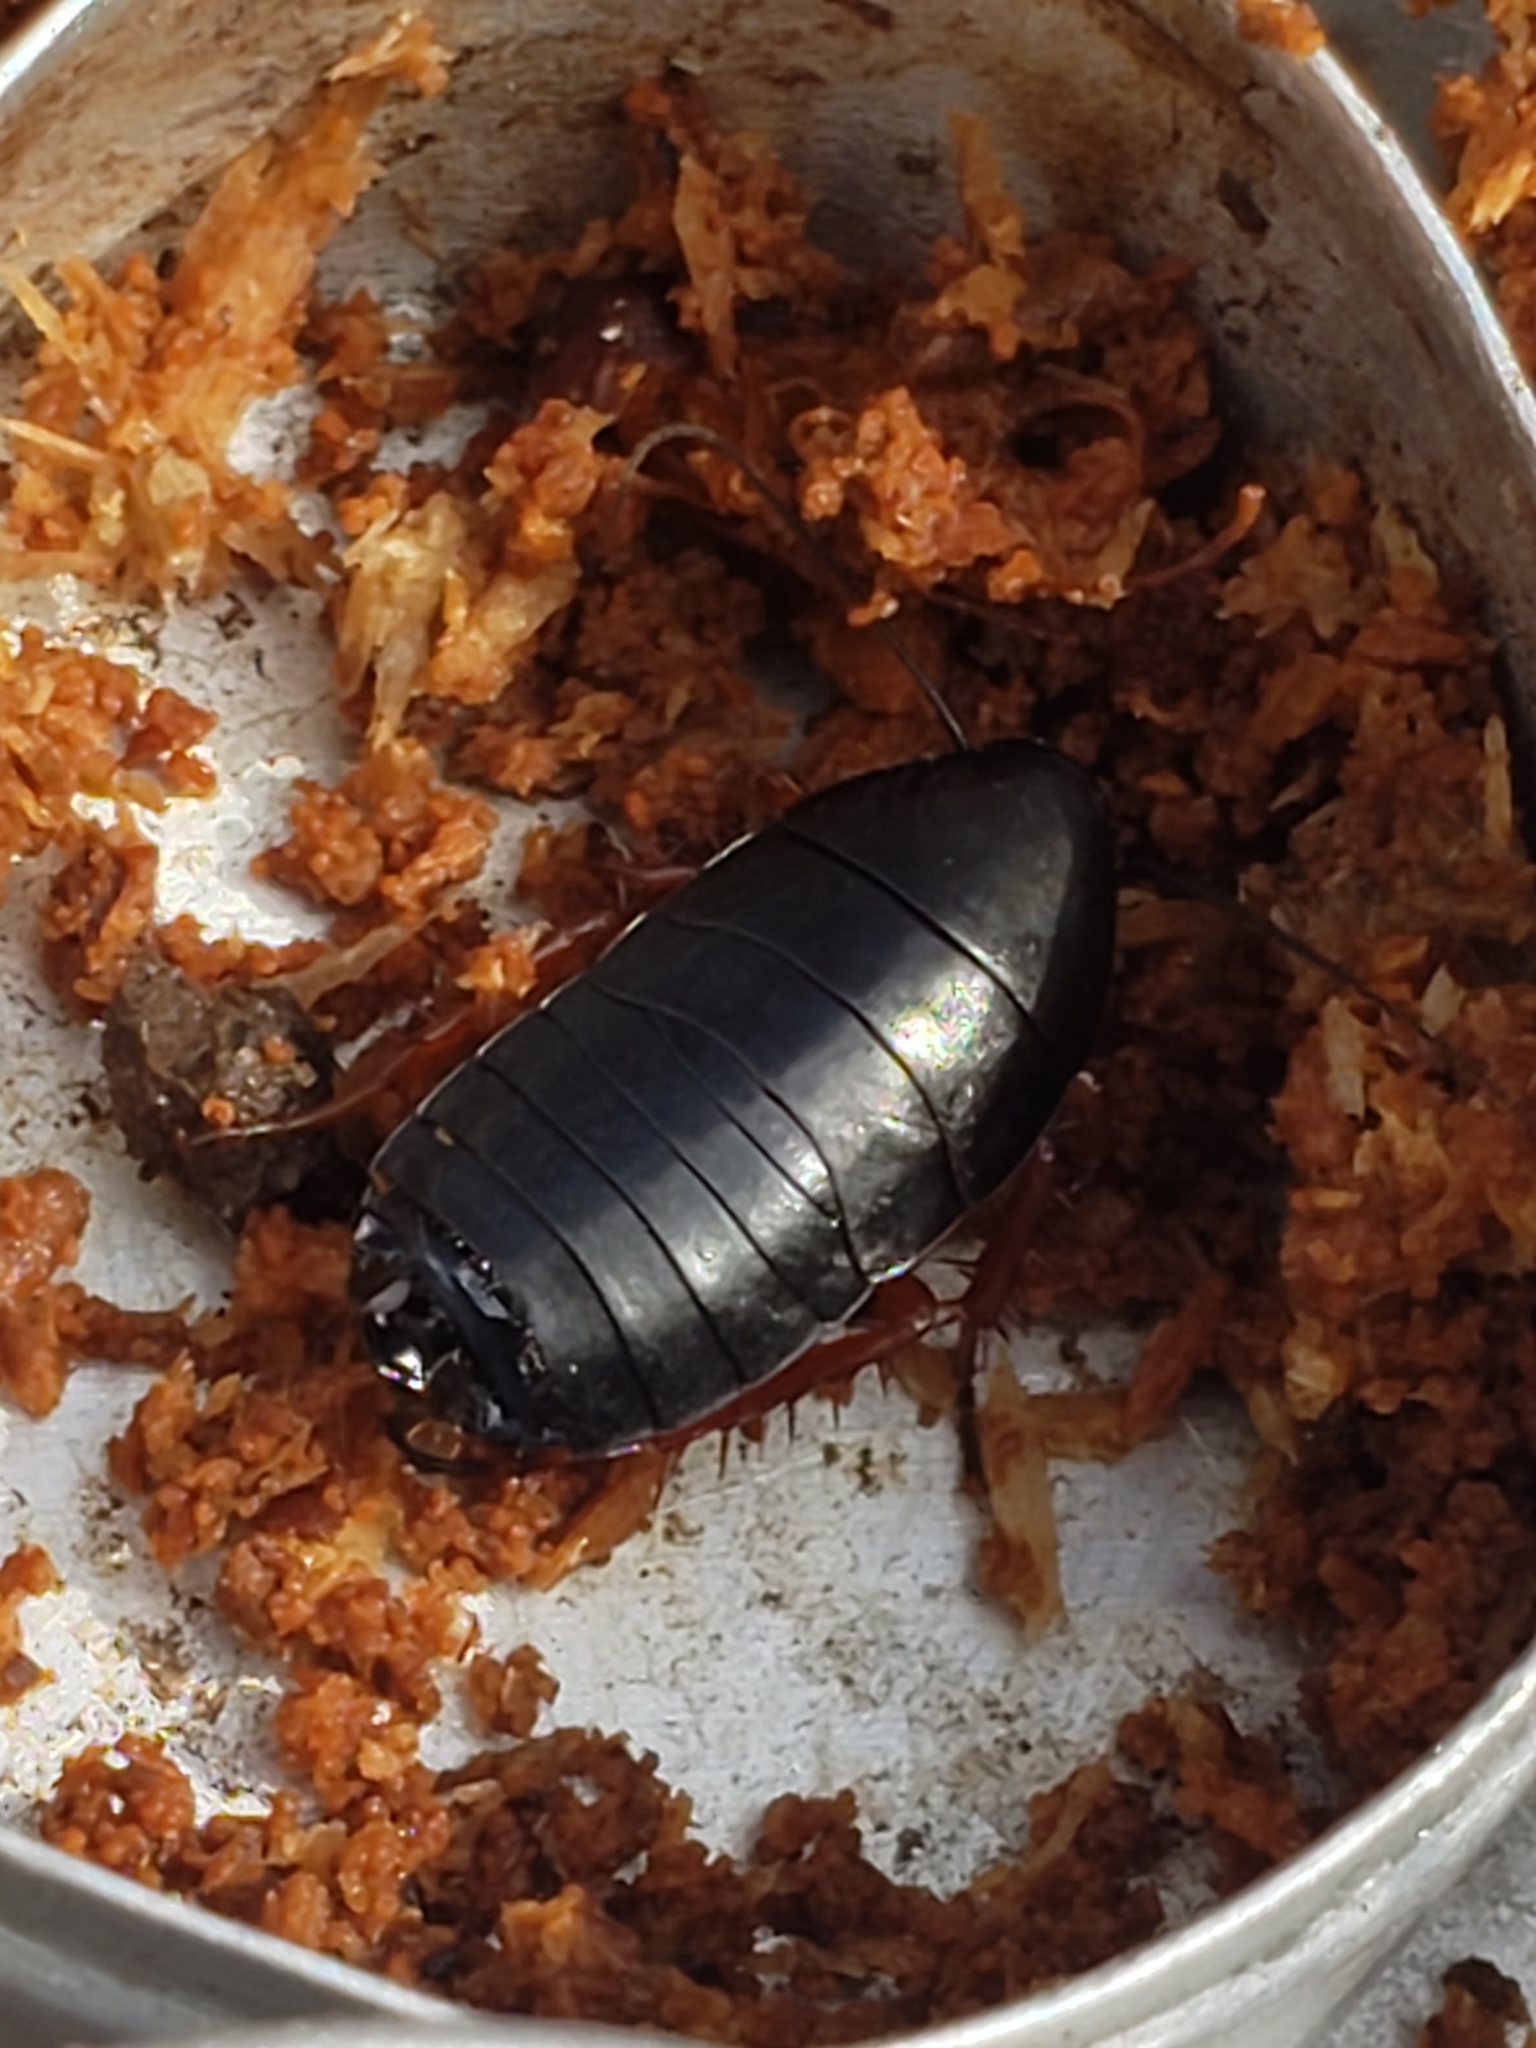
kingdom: Animalia
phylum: Arthropoda
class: Insecta
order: Blattodea
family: Ectobiidae
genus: Ischnoptera
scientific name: Ischnoptera deropeltiformis
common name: Dark wood cockroach
